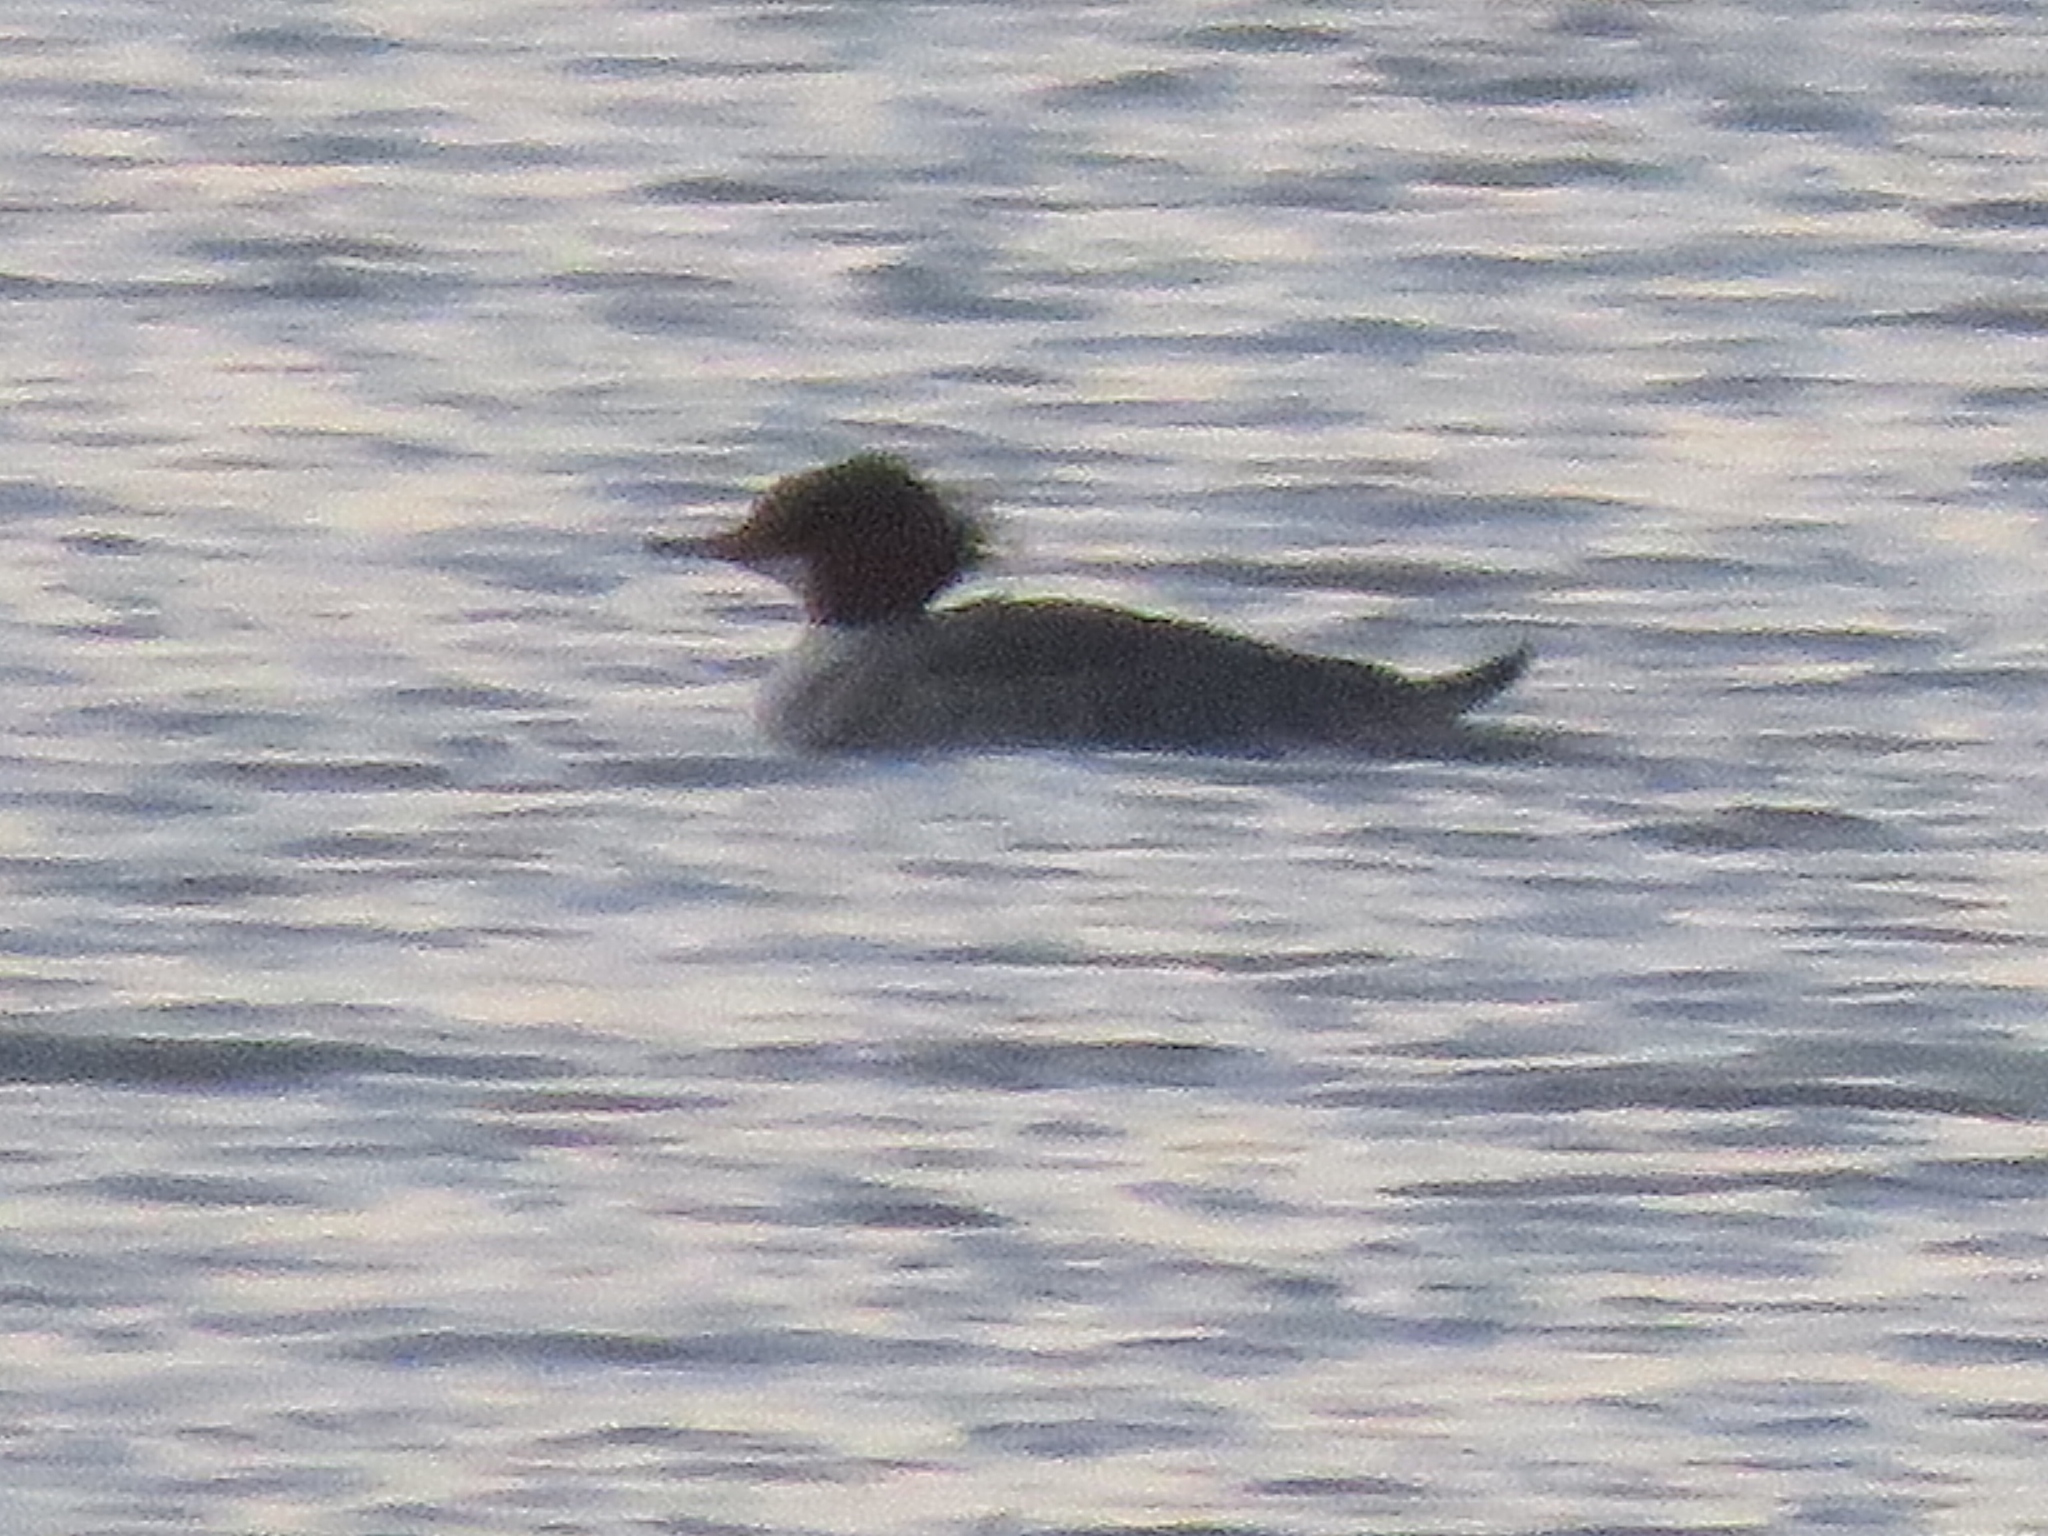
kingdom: Animalia
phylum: Chordata
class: Aves
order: Anseriformes
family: Anatidae
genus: Mergus
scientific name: Mergus merganser
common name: Common merganser
